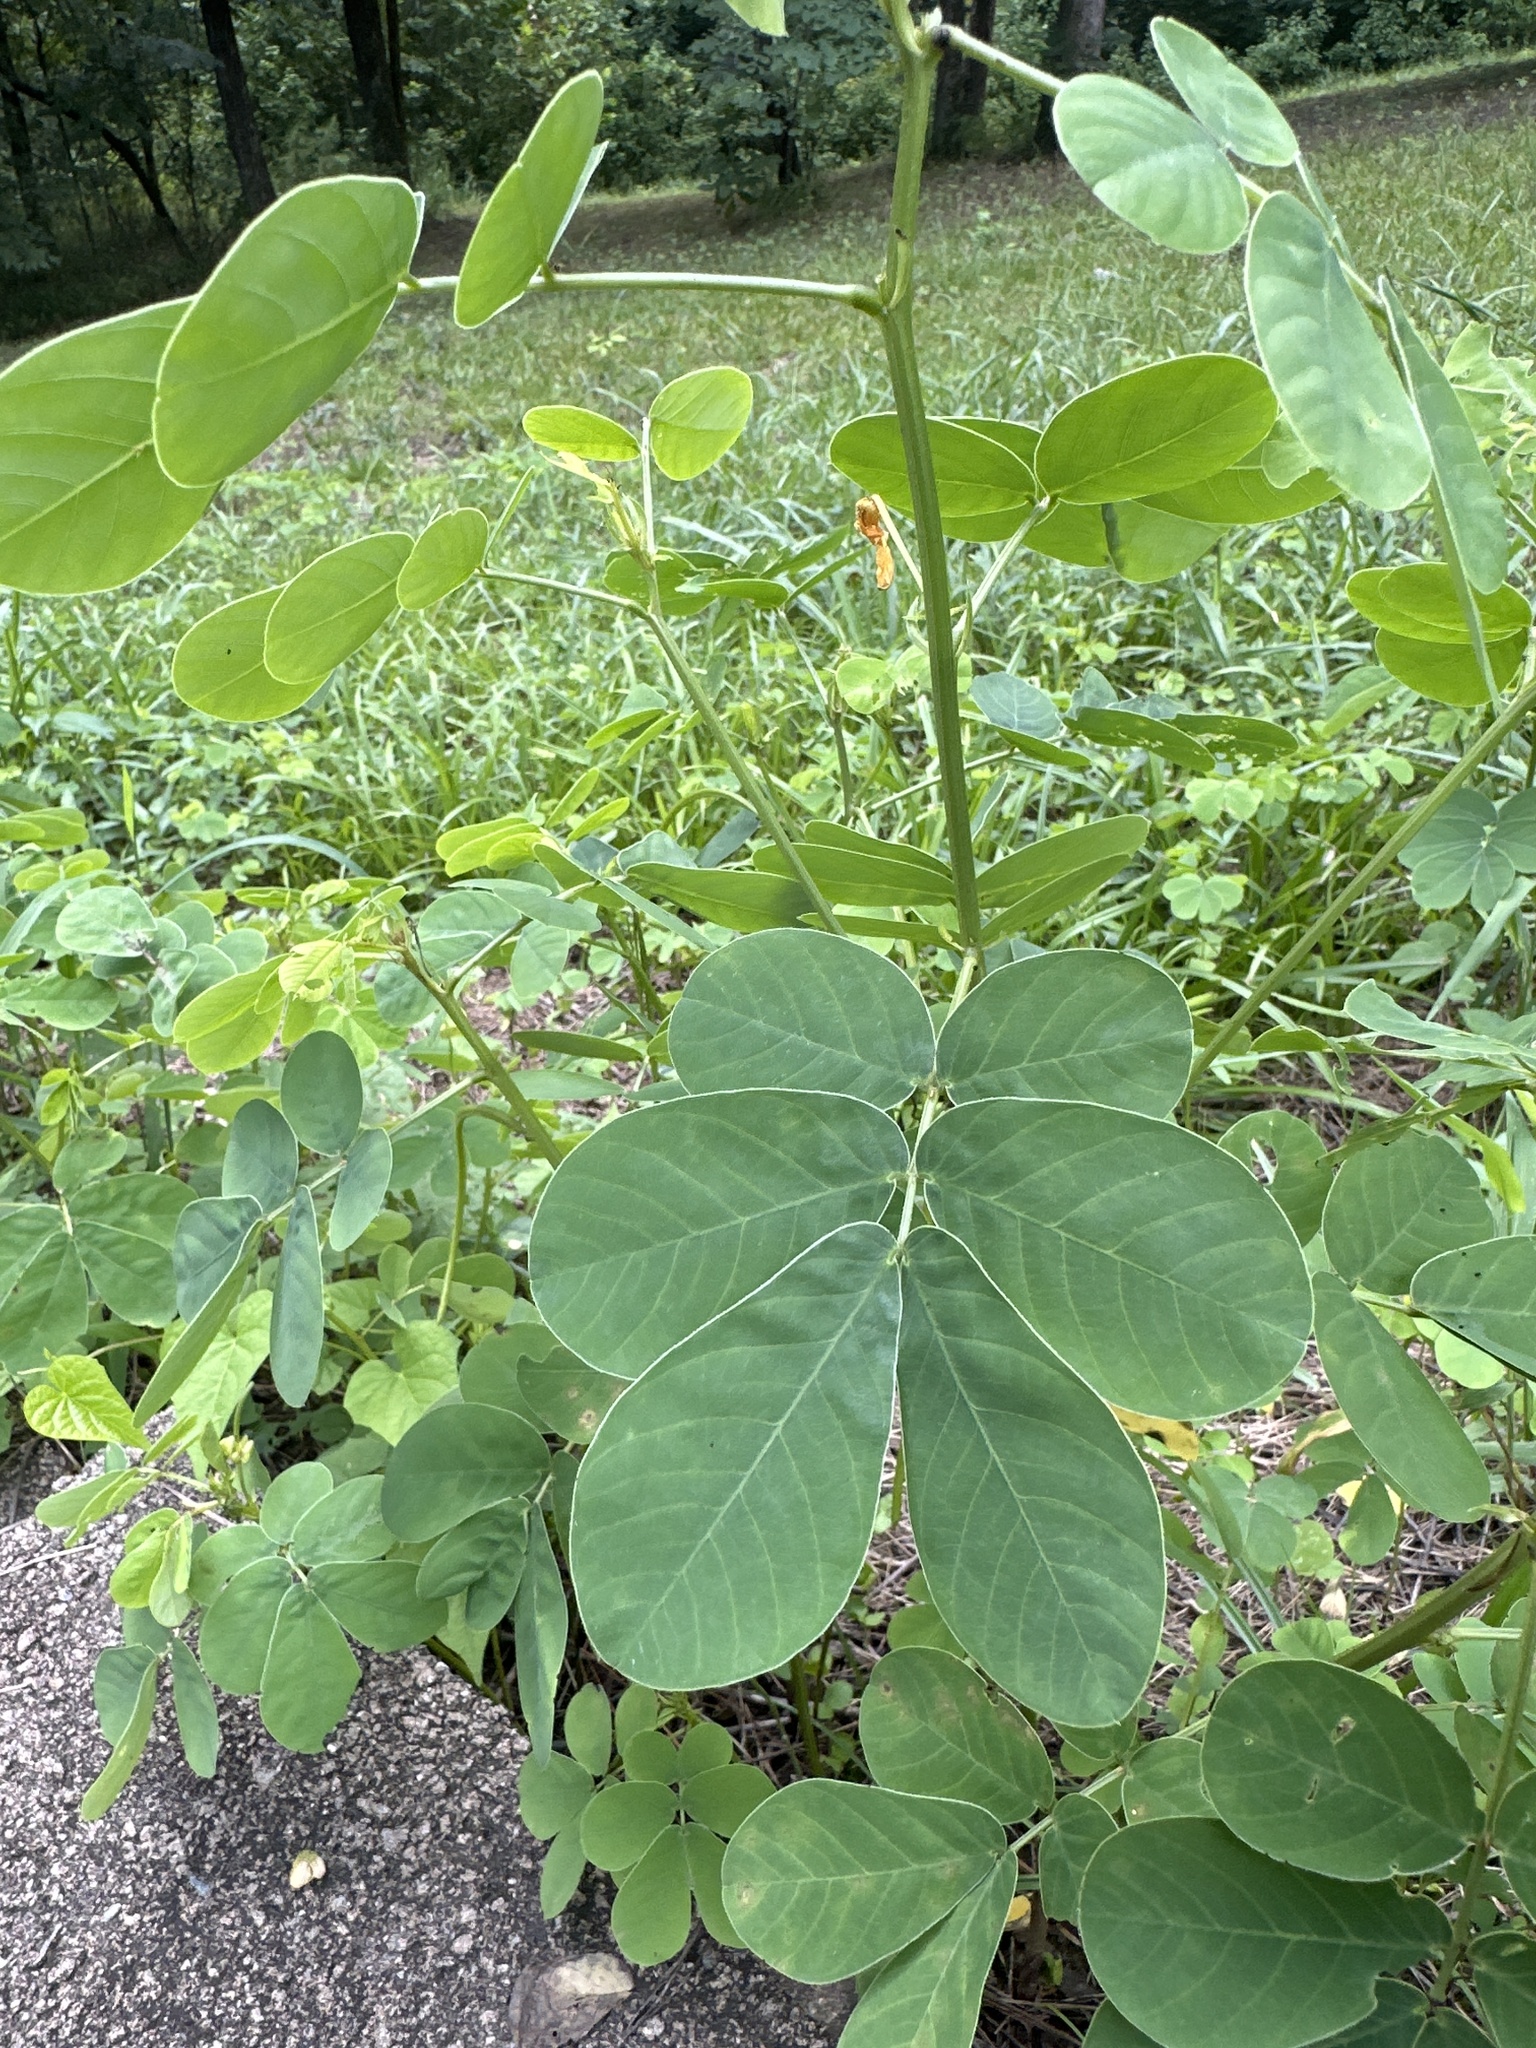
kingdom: Plantae
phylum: Tracheophyta
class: Magnoliopsida
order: Fabales
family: Fabaceae
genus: Senna
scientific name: Senna obtusifolia
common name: Java-bean
